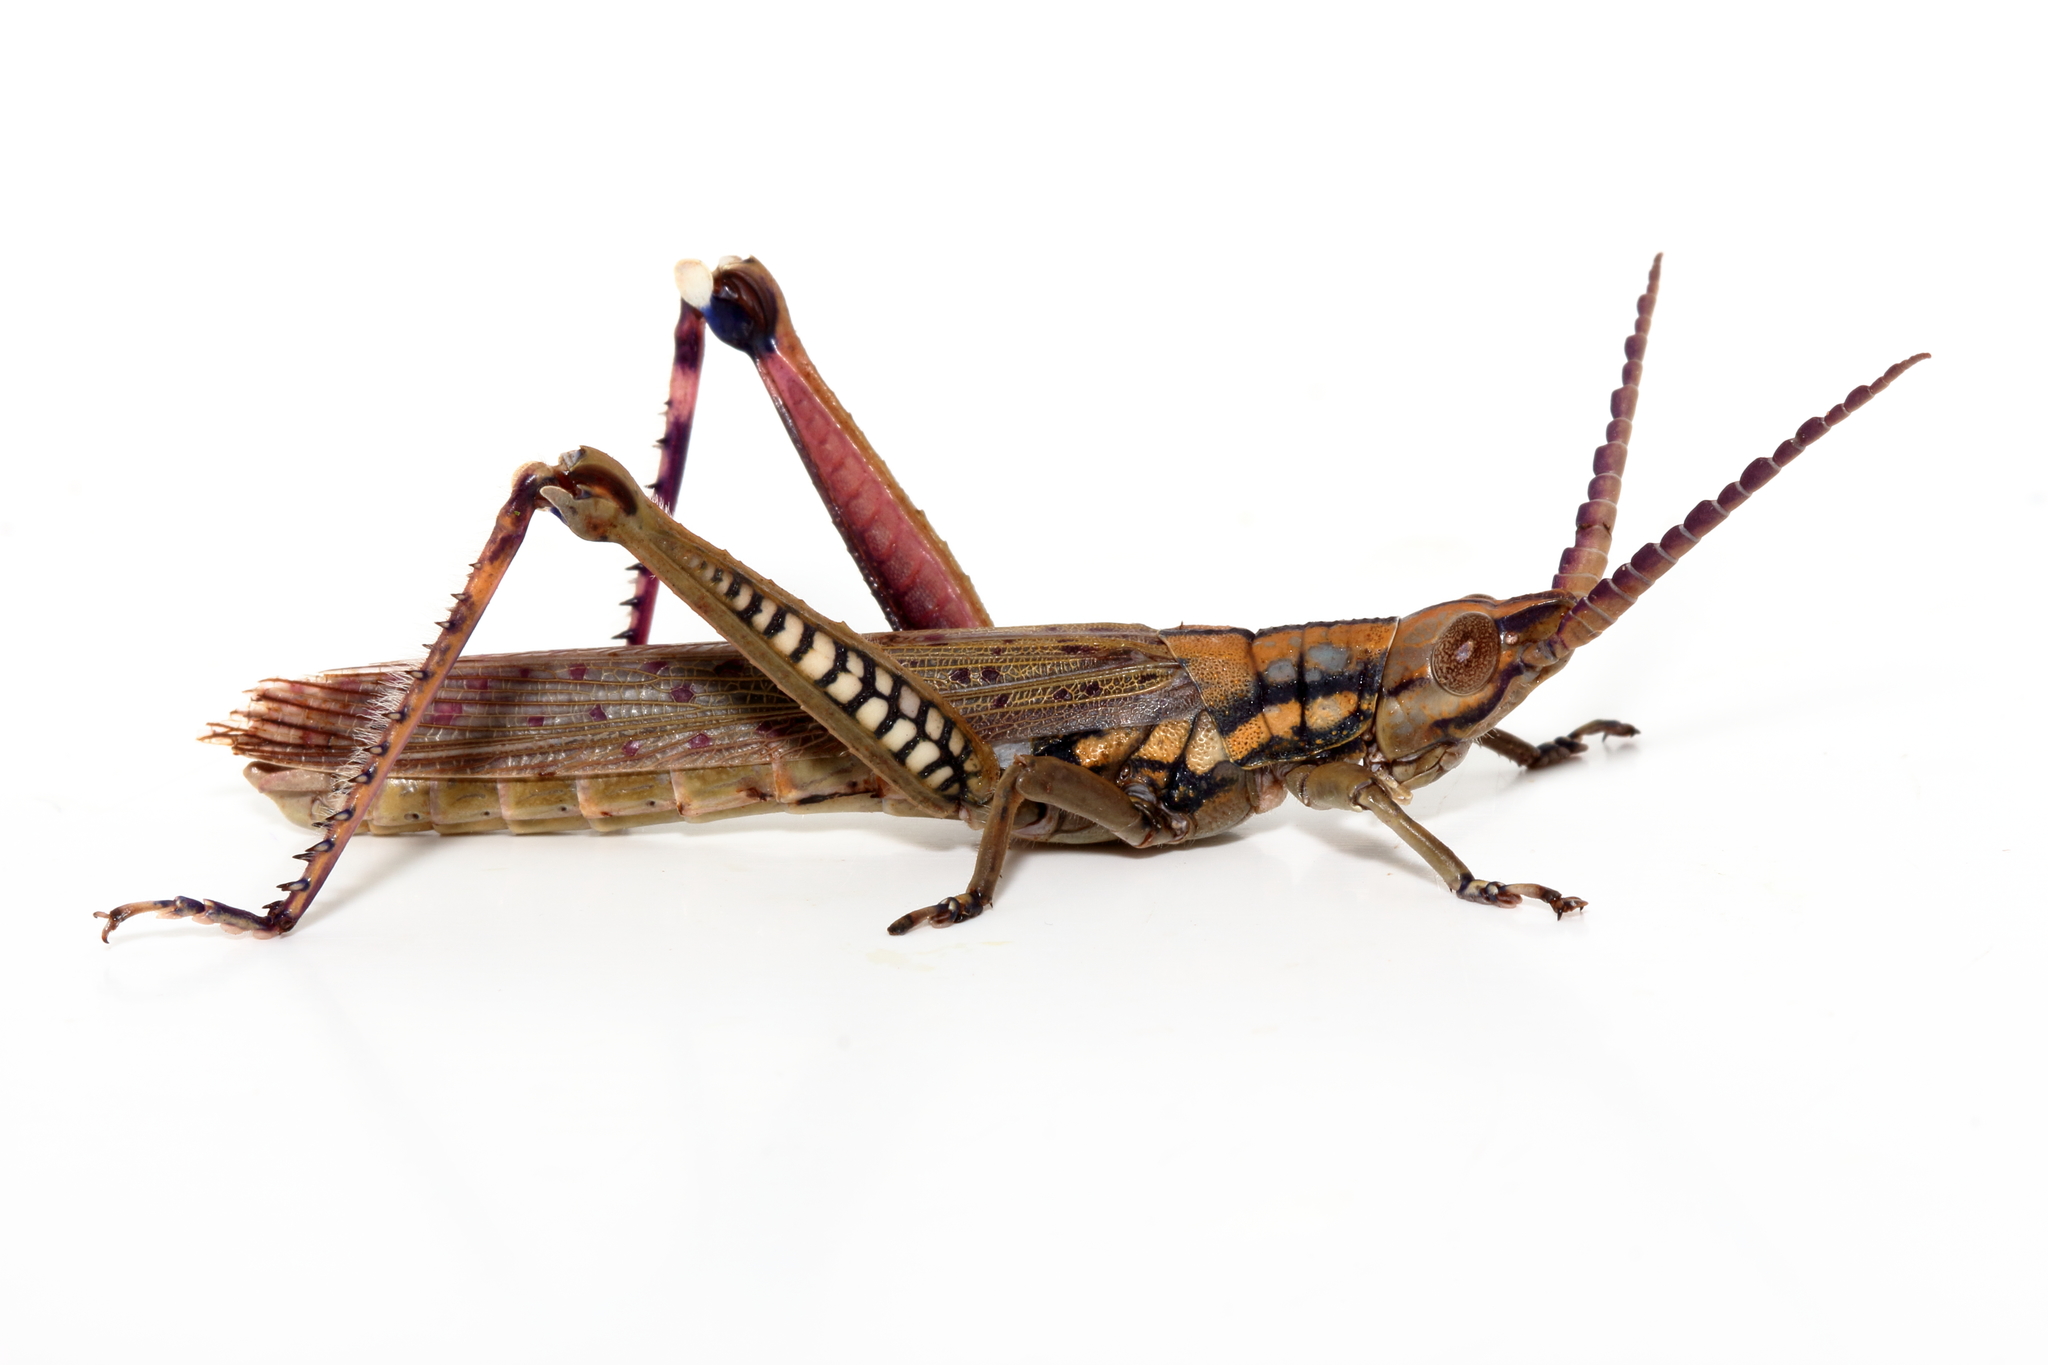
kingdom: Animalia
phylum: Arthropoda
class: Insecta
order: Orthoptera
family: Acrididae
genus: Macrolobalia
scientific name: Macrolobalia ocellata
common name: Gaudy acacia grasshopper
